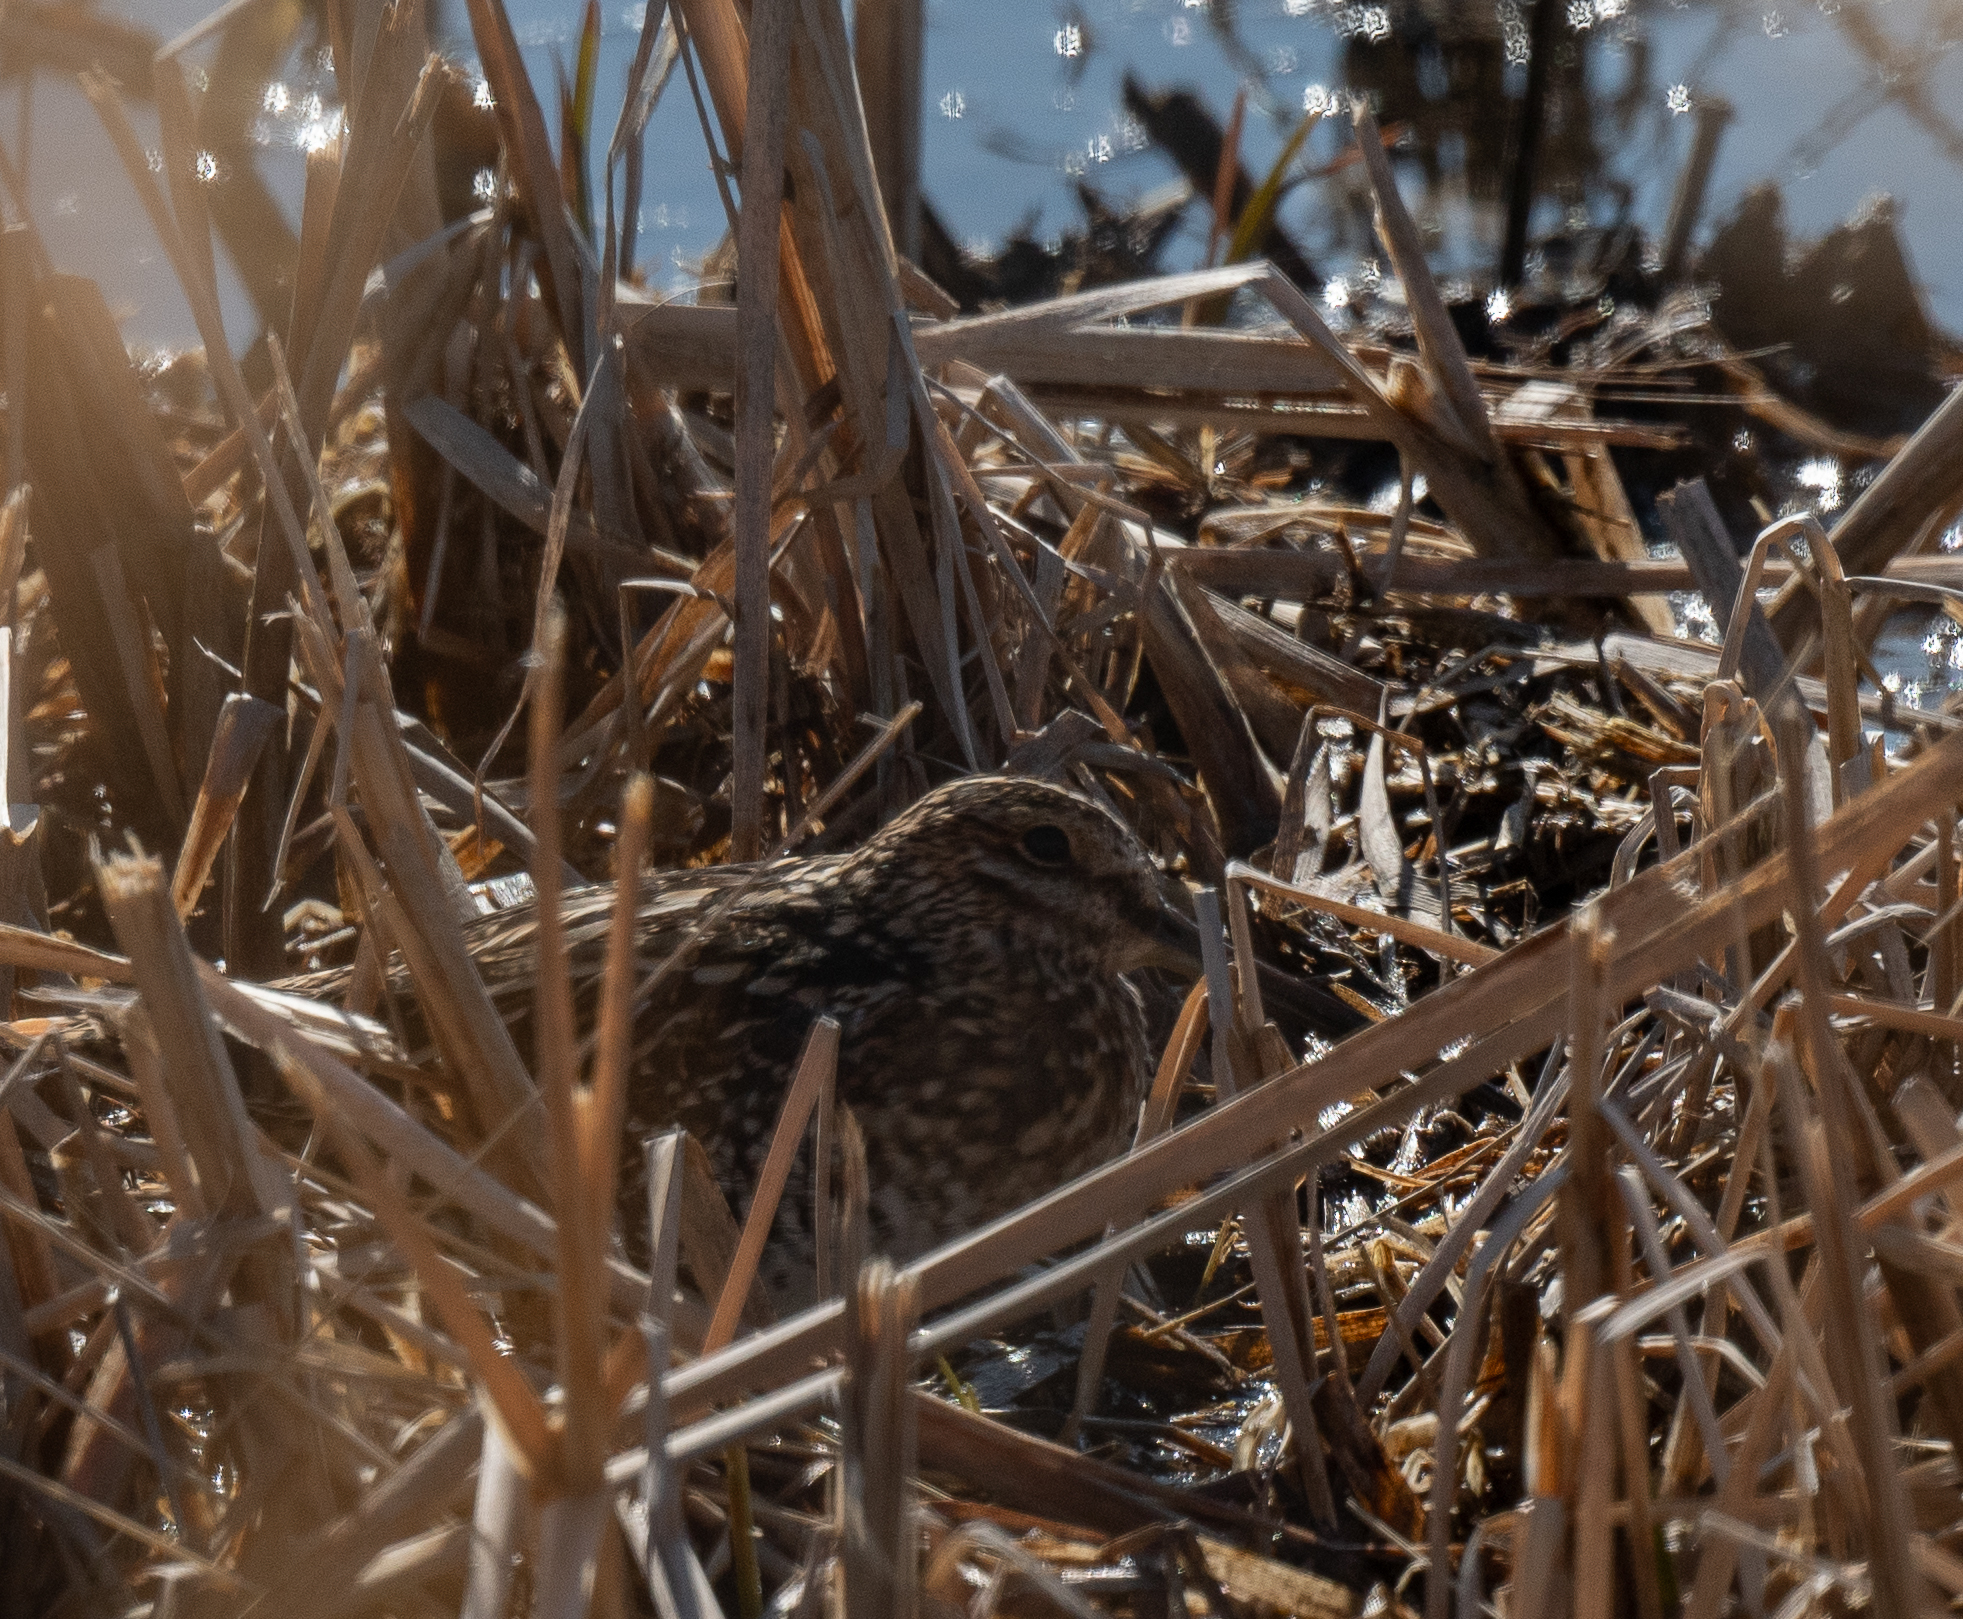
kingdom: Animalia
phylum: Chordata
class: Aves
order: Charadriiformes
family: Scolopacidae
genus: Gallinago
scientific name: Gallinago delicata
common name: Wilson's snipe
